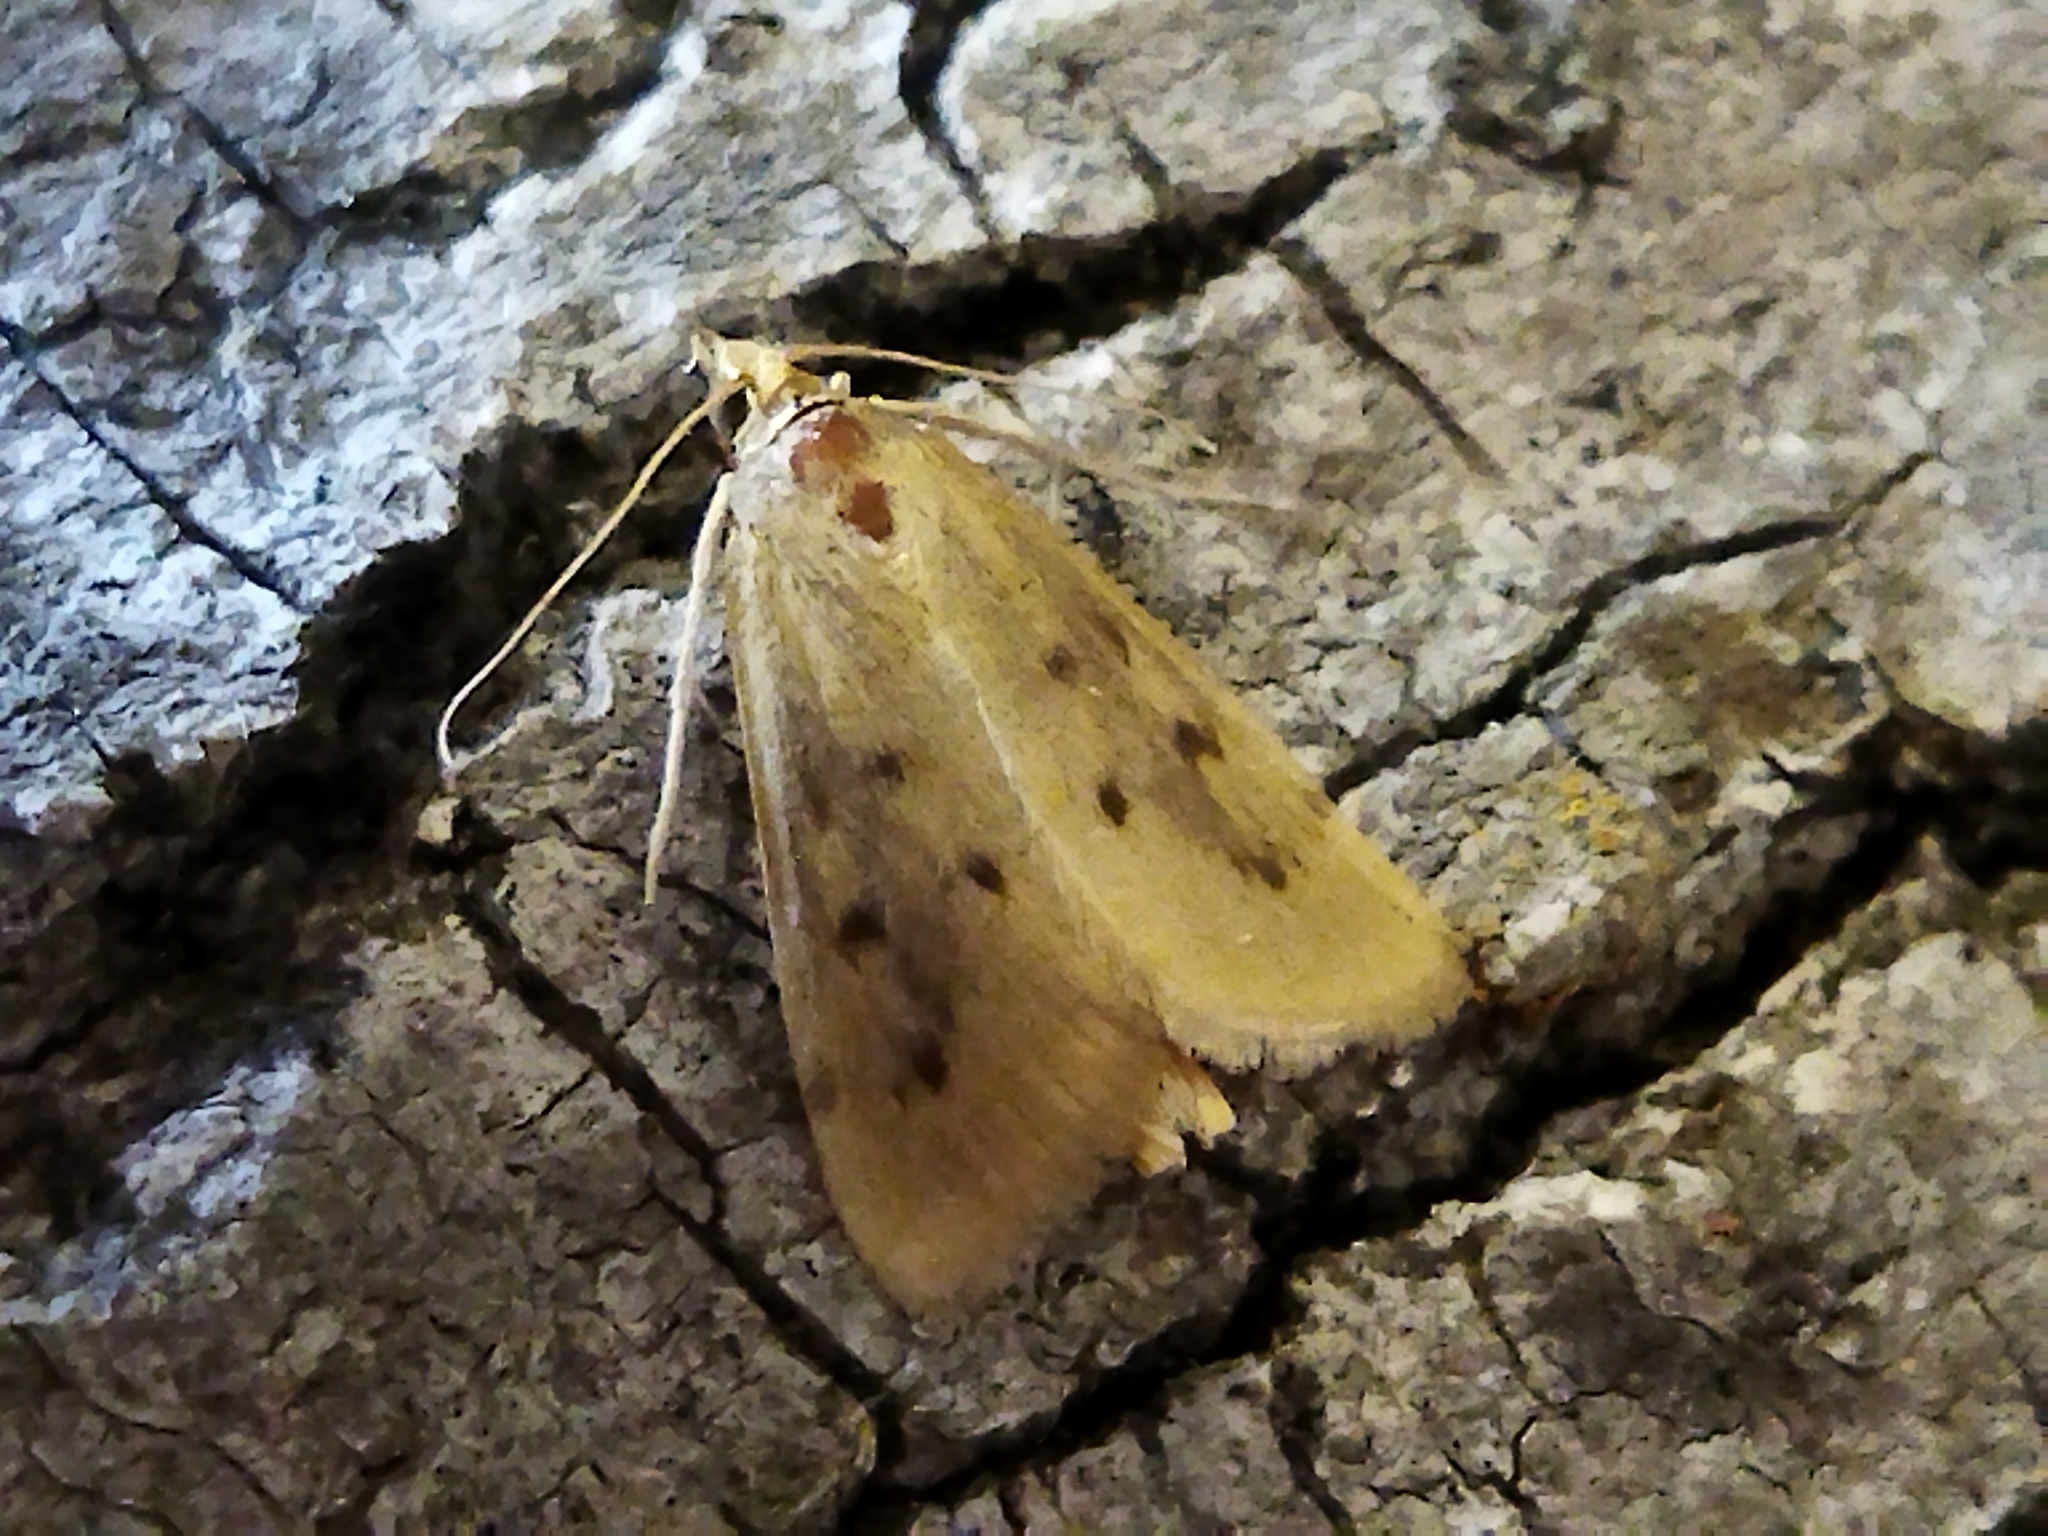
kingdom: Animalia
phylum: Arthropoda
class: Insecta
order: Lepidoptera
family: Crambidae
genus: Achyra
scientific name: Achyra nudalis
